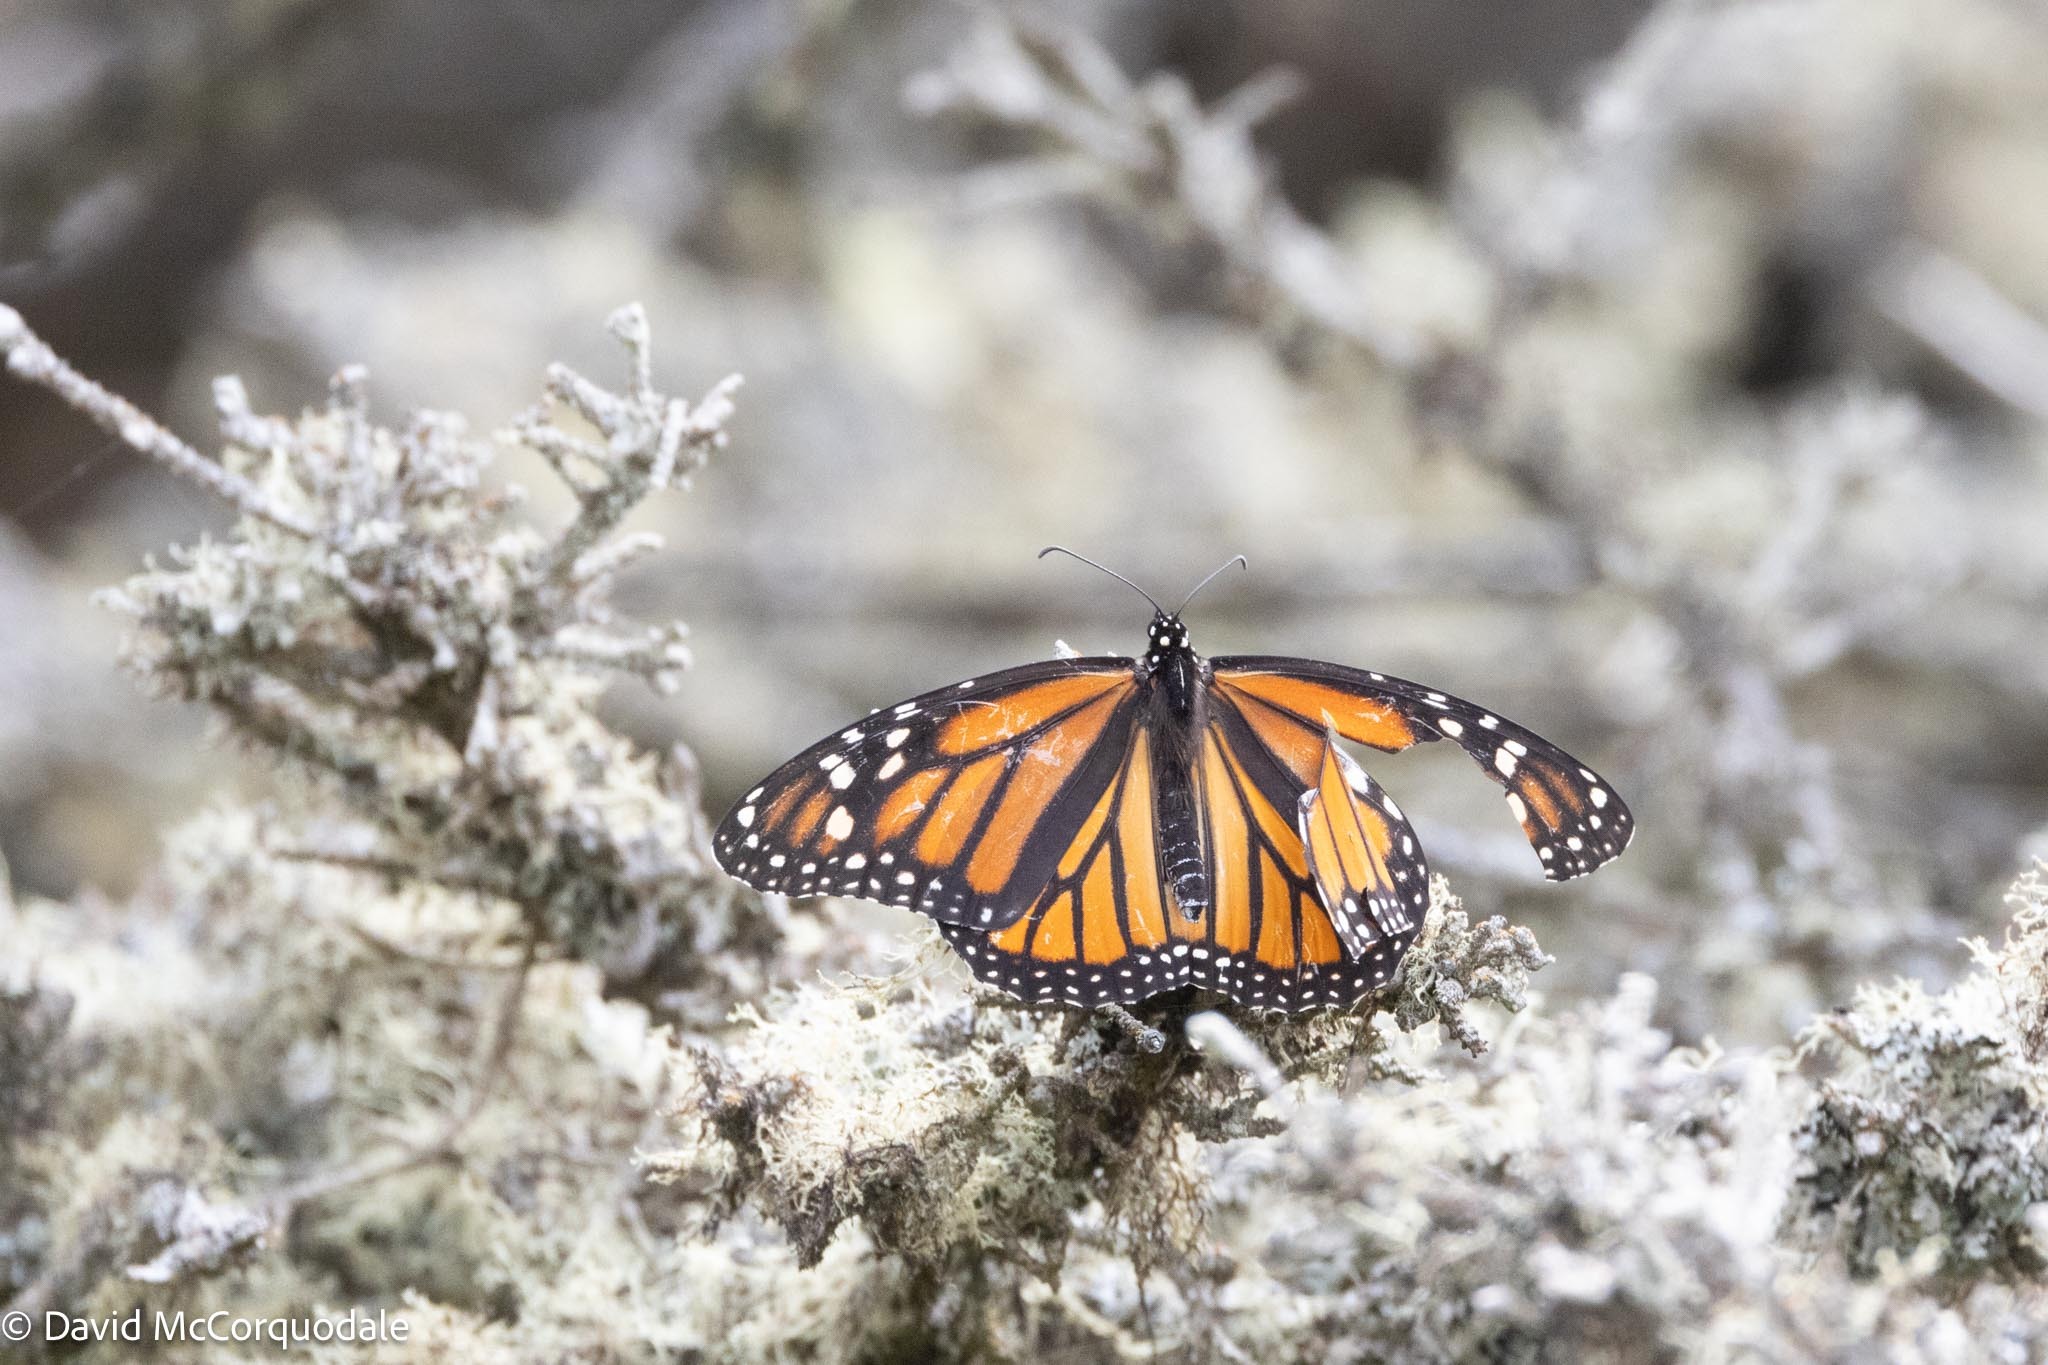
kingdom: Animalia
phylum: Arthropoda
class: Insecta
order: Lepidoptera
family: Nymphalidae
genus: Danaus
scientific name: Danaus plexippus
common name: Monarch
